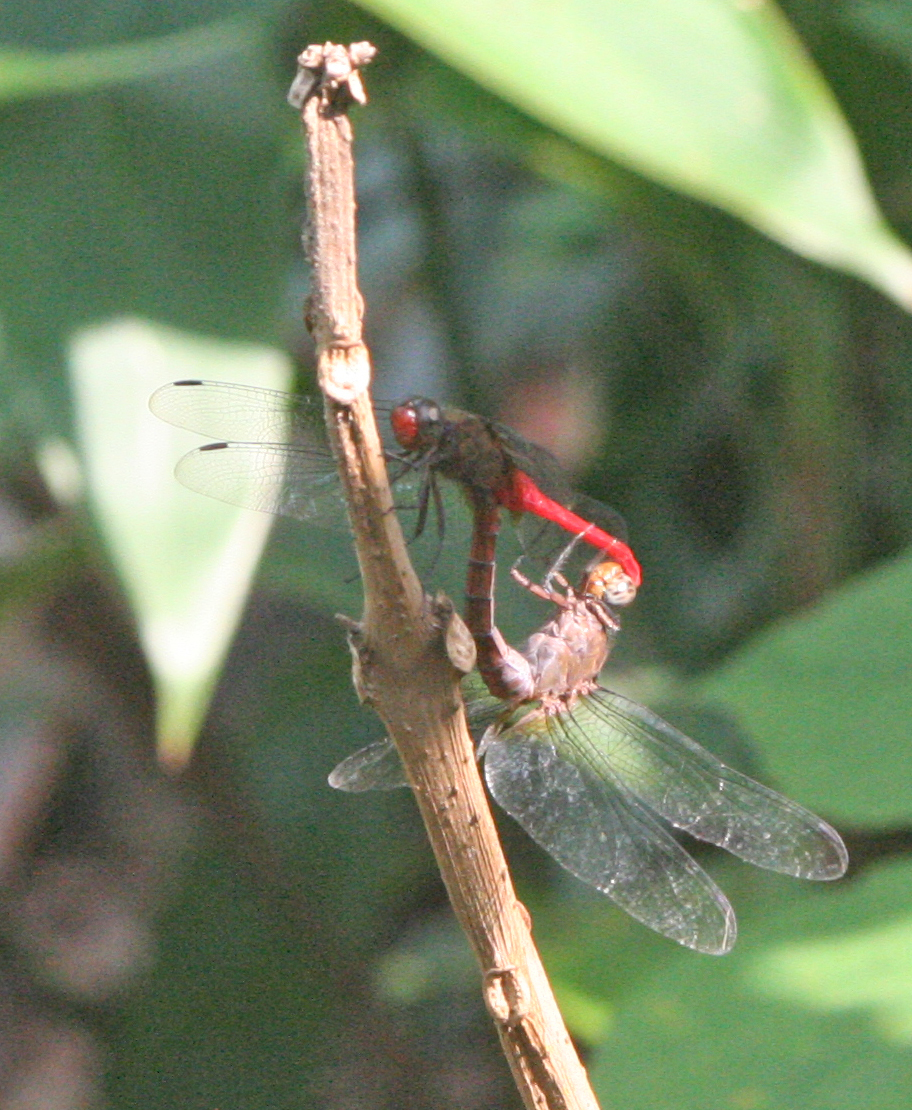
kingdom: Animalia
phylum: Arthropoda
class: Insecta
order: Odonata
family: Libellulidae
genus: Orthetrum
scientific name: Orthetrum chrysis
